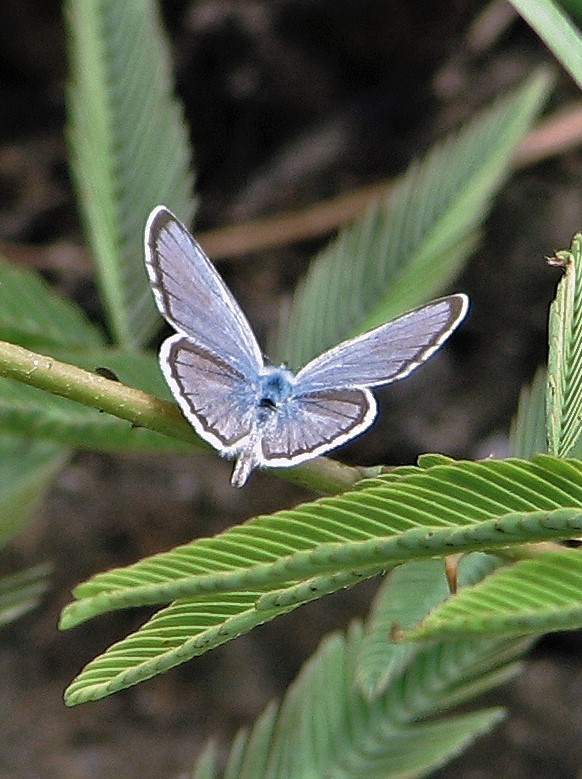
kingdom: Animalia
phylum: Arthropoda
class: Insecta
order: Lepidoptera
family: Lycaenidae
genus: Hemiargus
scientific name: Hemiargus hanno
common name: Common blue
